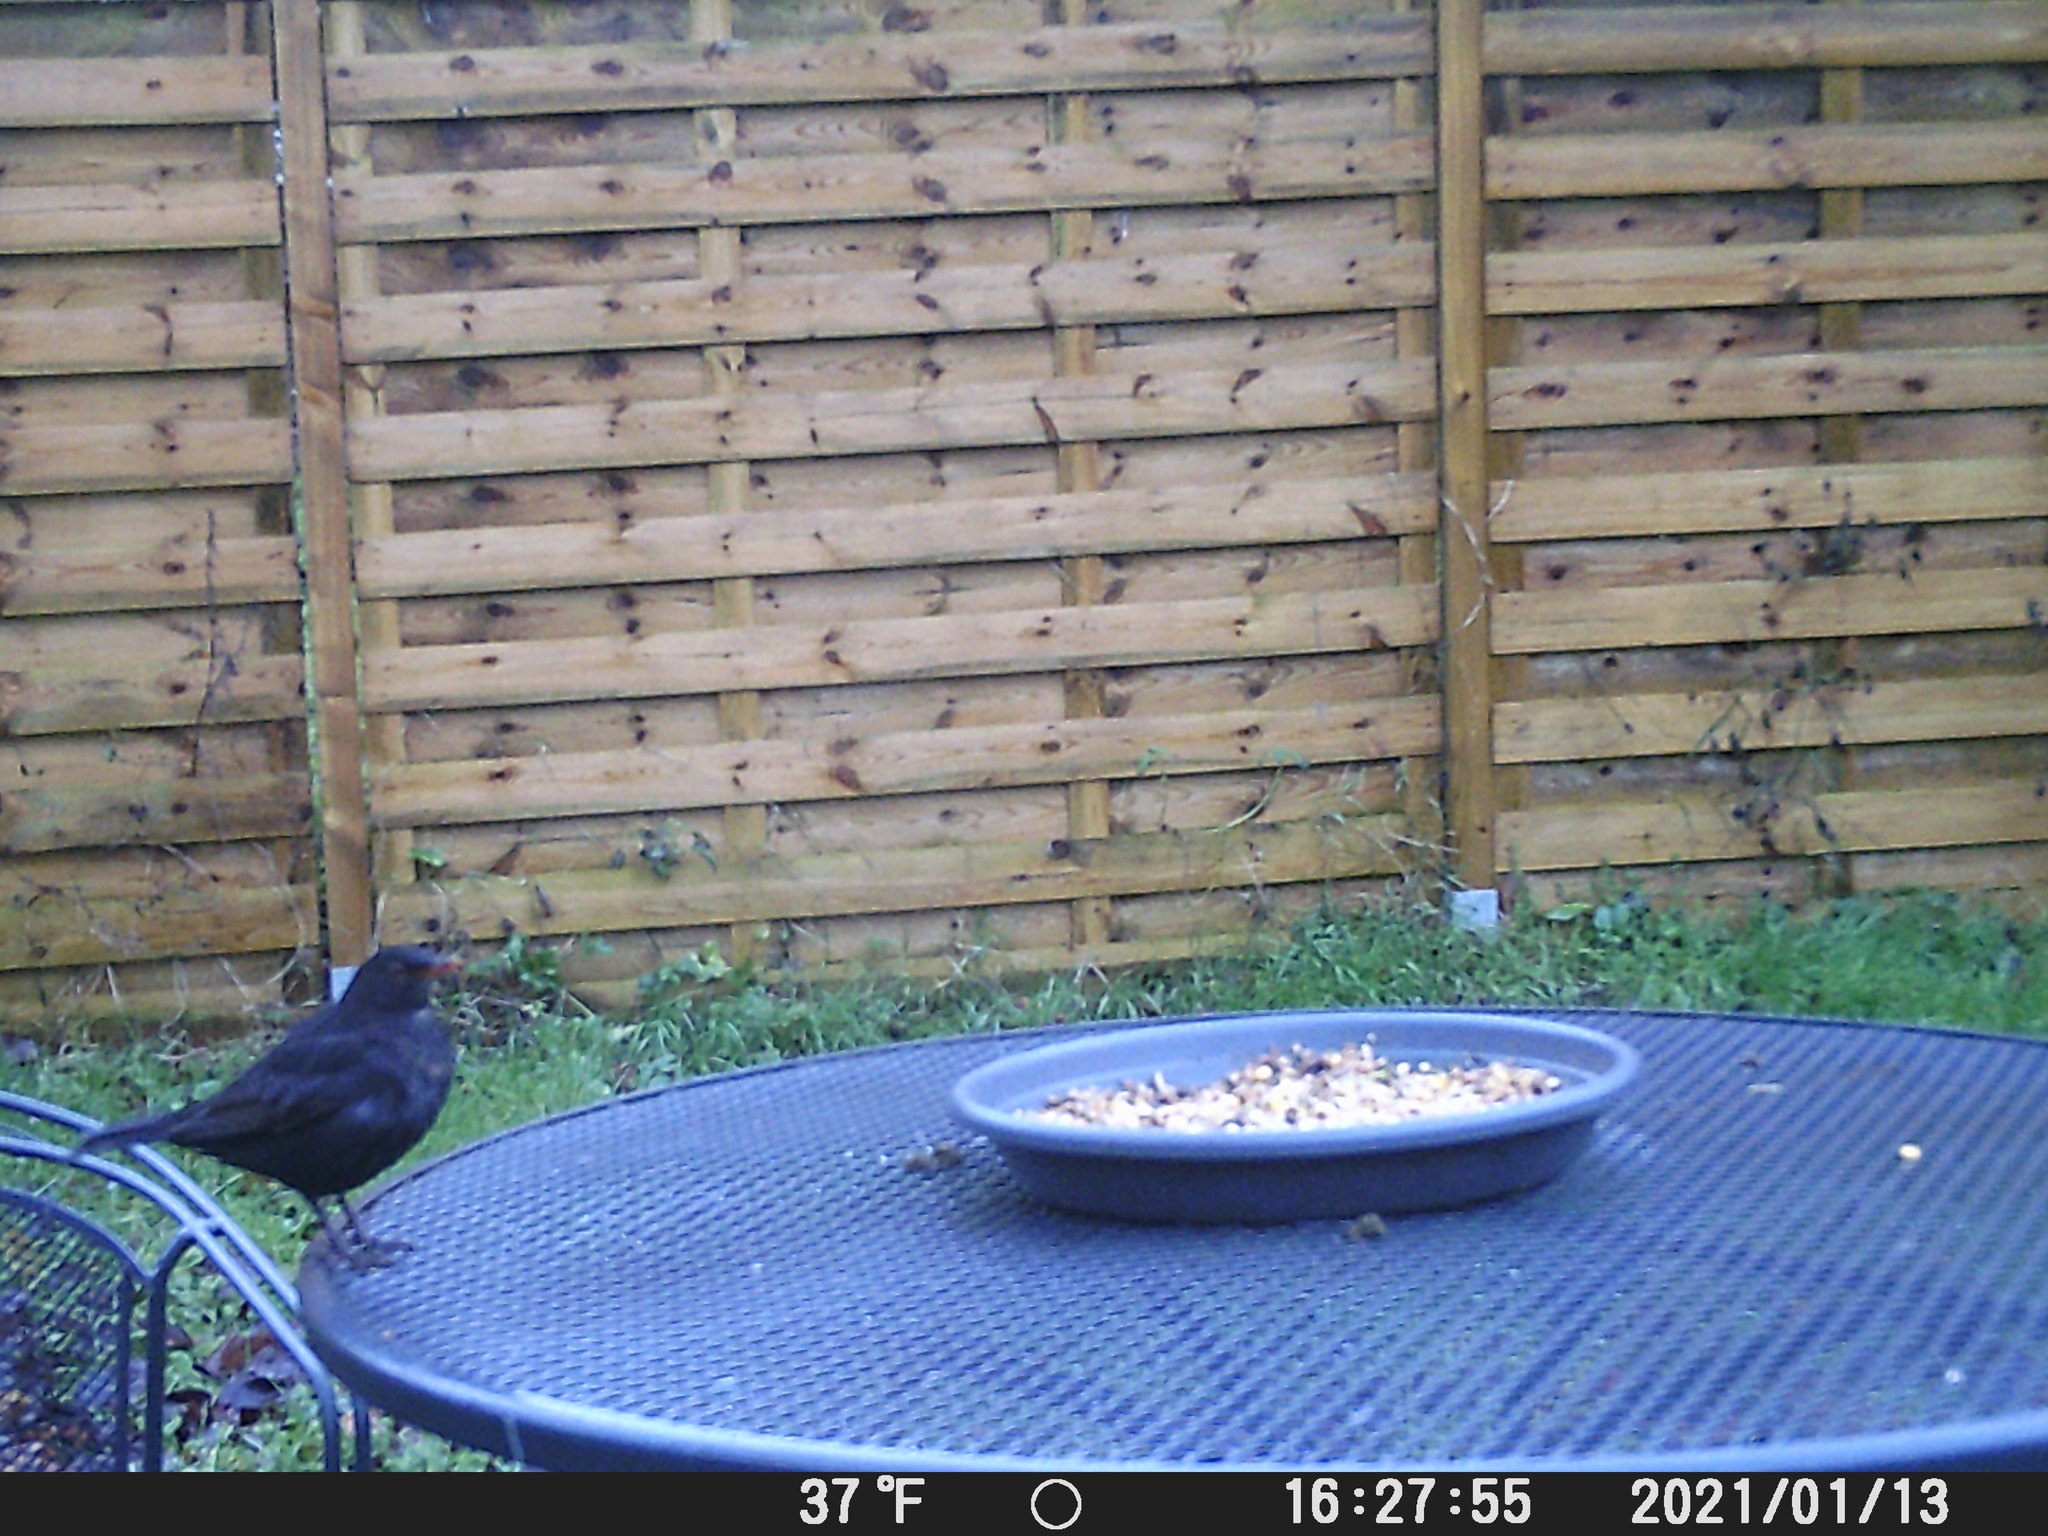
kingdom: Animalia
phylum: Chordata
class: Aves
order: Passeriformes
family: Turdidae
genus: Turdus
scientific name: Turdus merula
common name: Common blackbird
